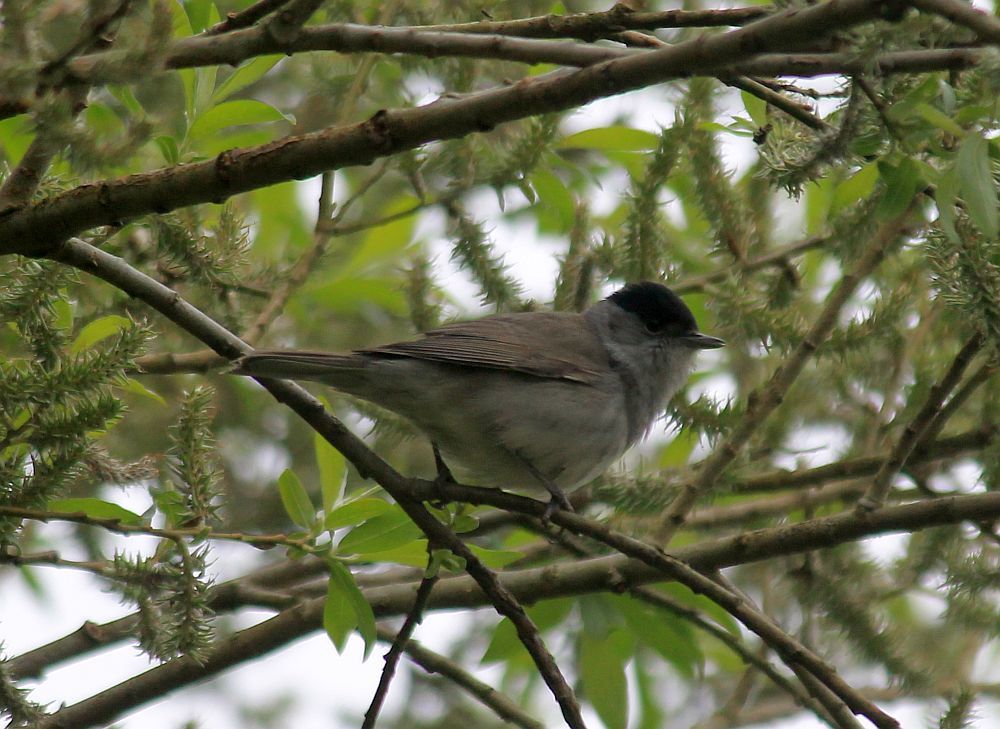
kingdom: Animalia
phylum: Chordata
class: Aves
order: Passeriformes
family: Sylviidae
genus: Sylvia
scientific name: Sylvia atricapilla
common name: Eurasian blackcap
